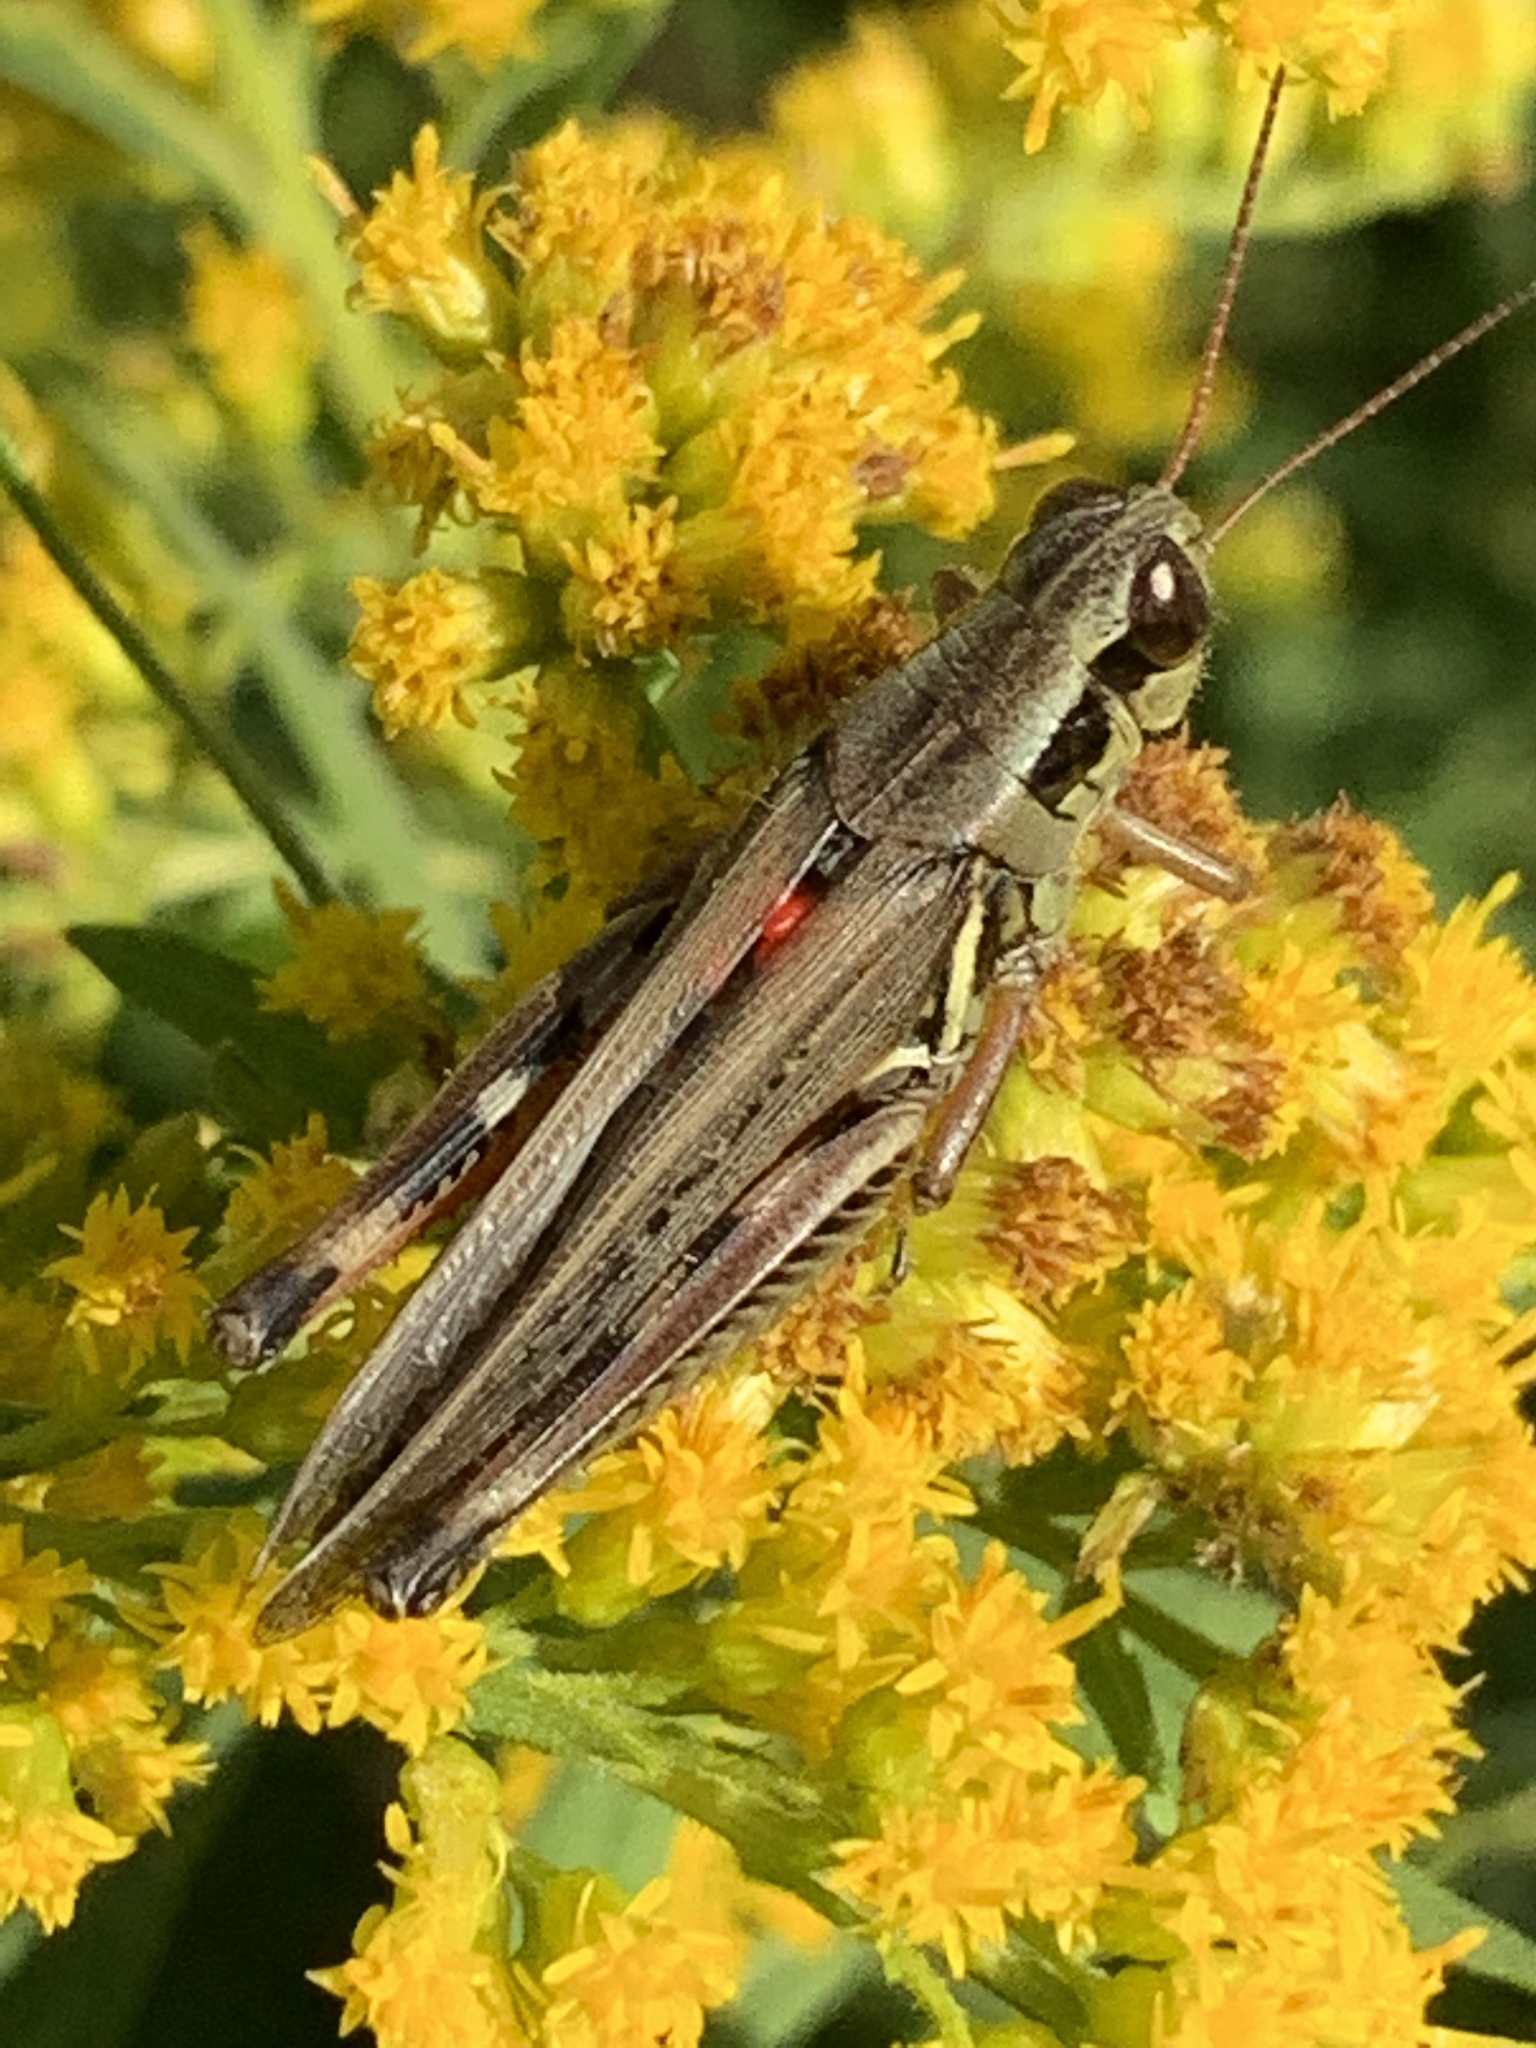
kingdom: Animalia
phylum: Arthropoda
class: Insecta
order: Orthoptera
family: Acrididae
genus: Melanoplus
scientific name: Melanoplus femurrubrum
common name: Red-legged grasshopper
